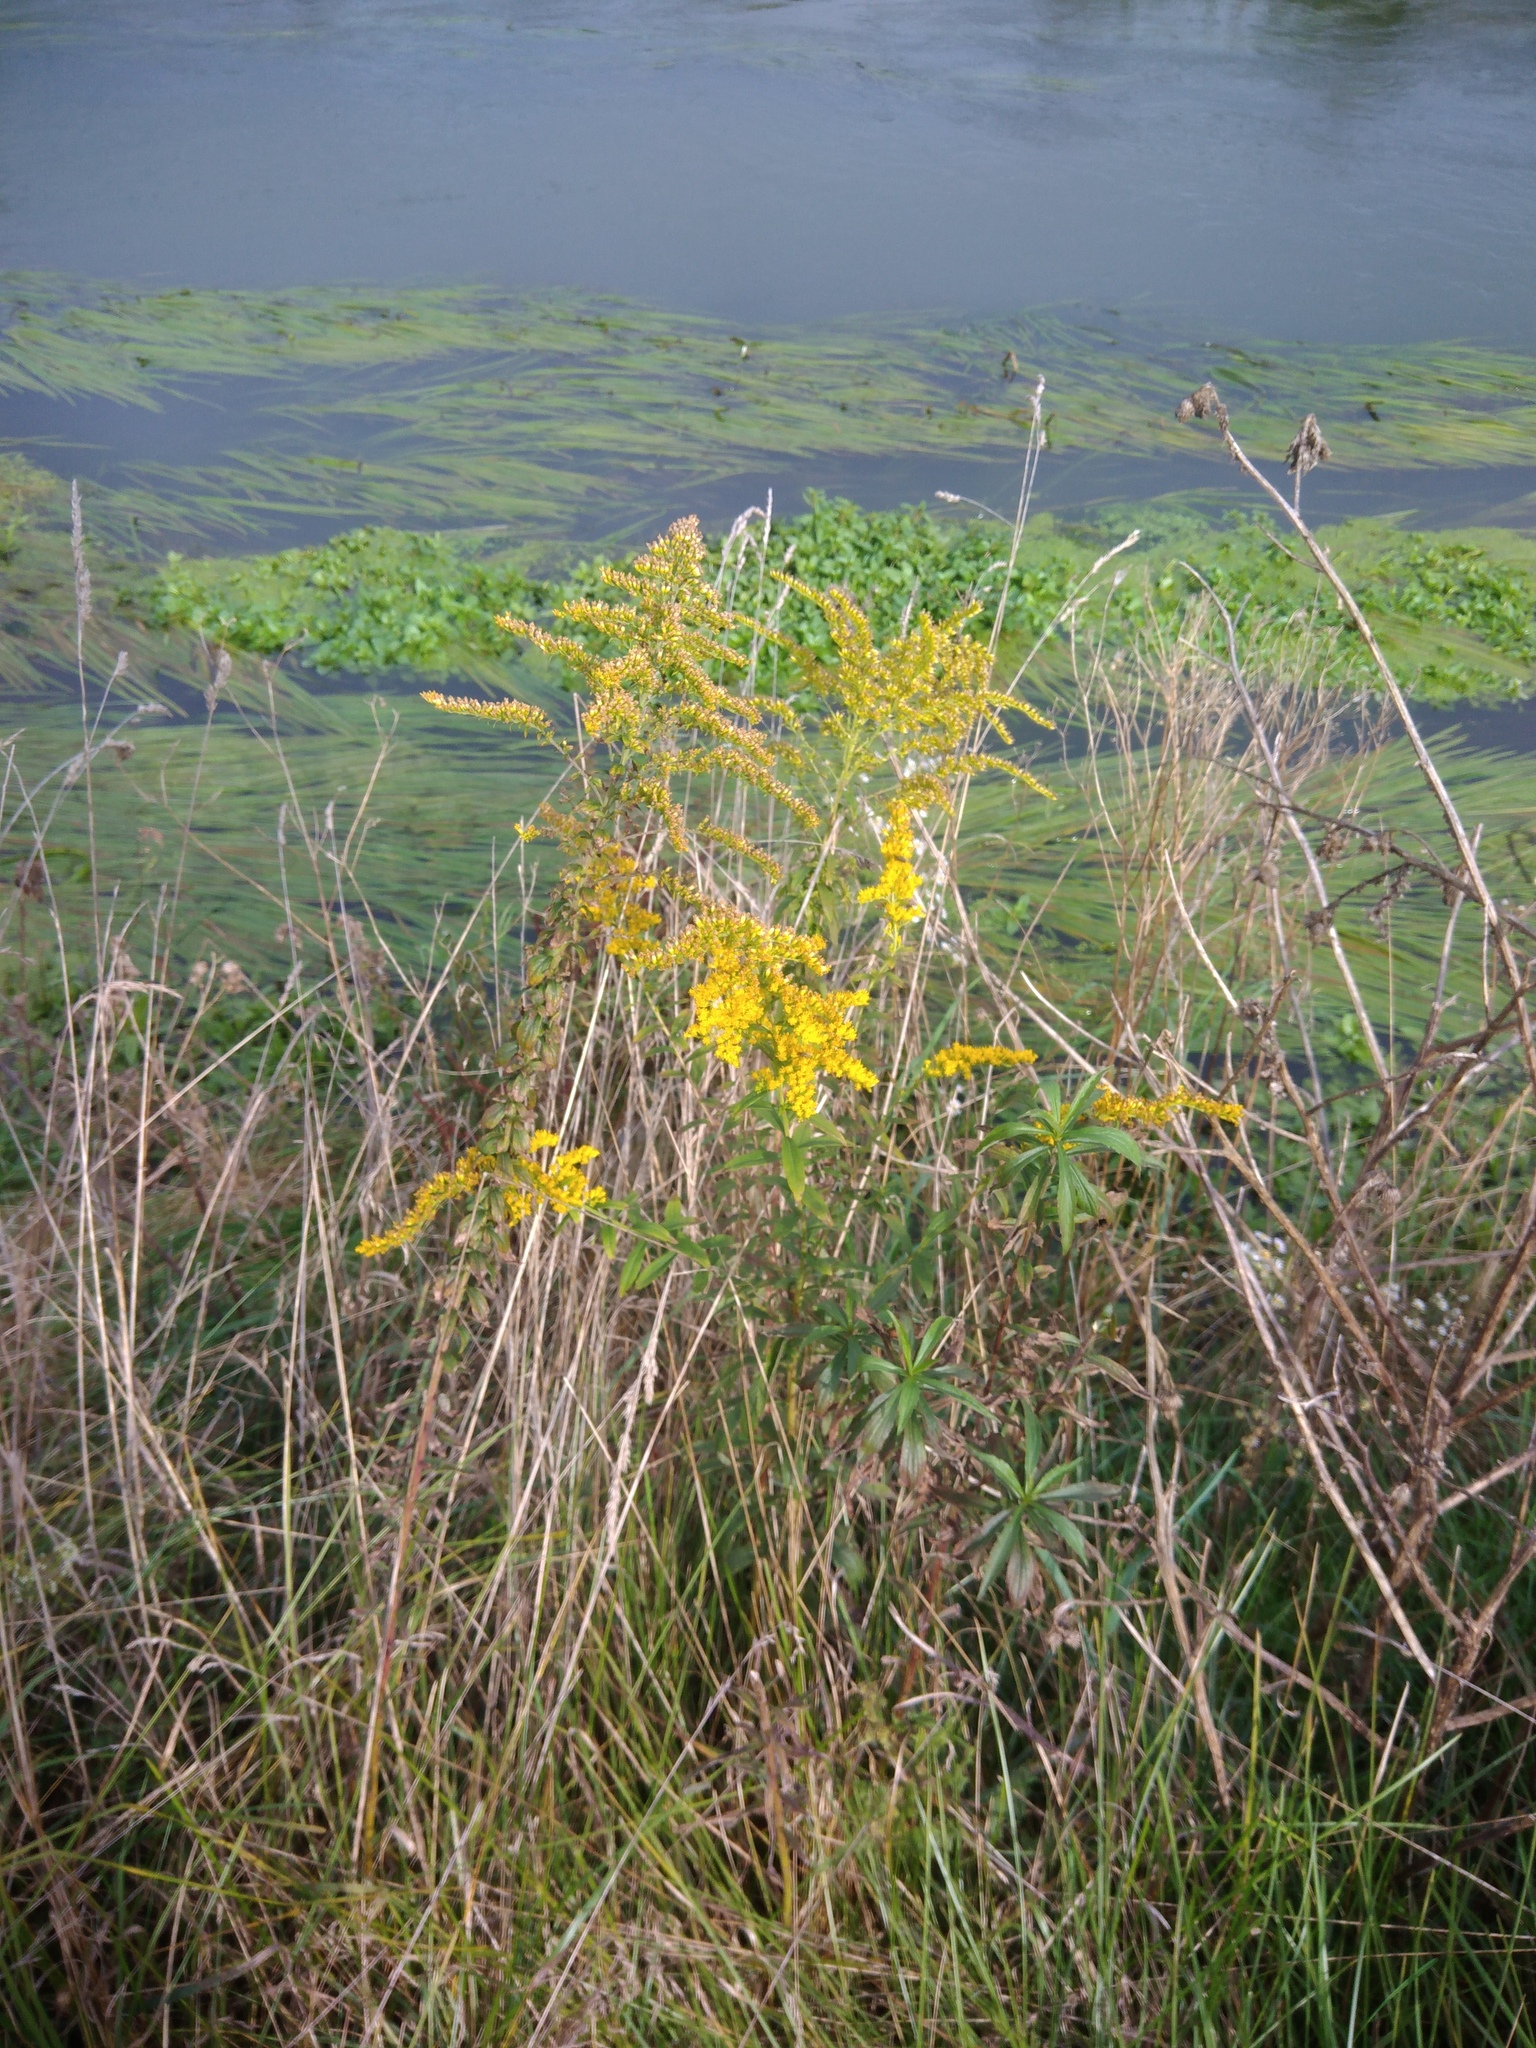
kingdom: Plantae
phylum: Tracheophyta
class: Magnoliopsida
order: Asterales
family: Asteraceae
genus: Solidago
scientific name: Solidago canadensis
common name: Canada goldenrod
